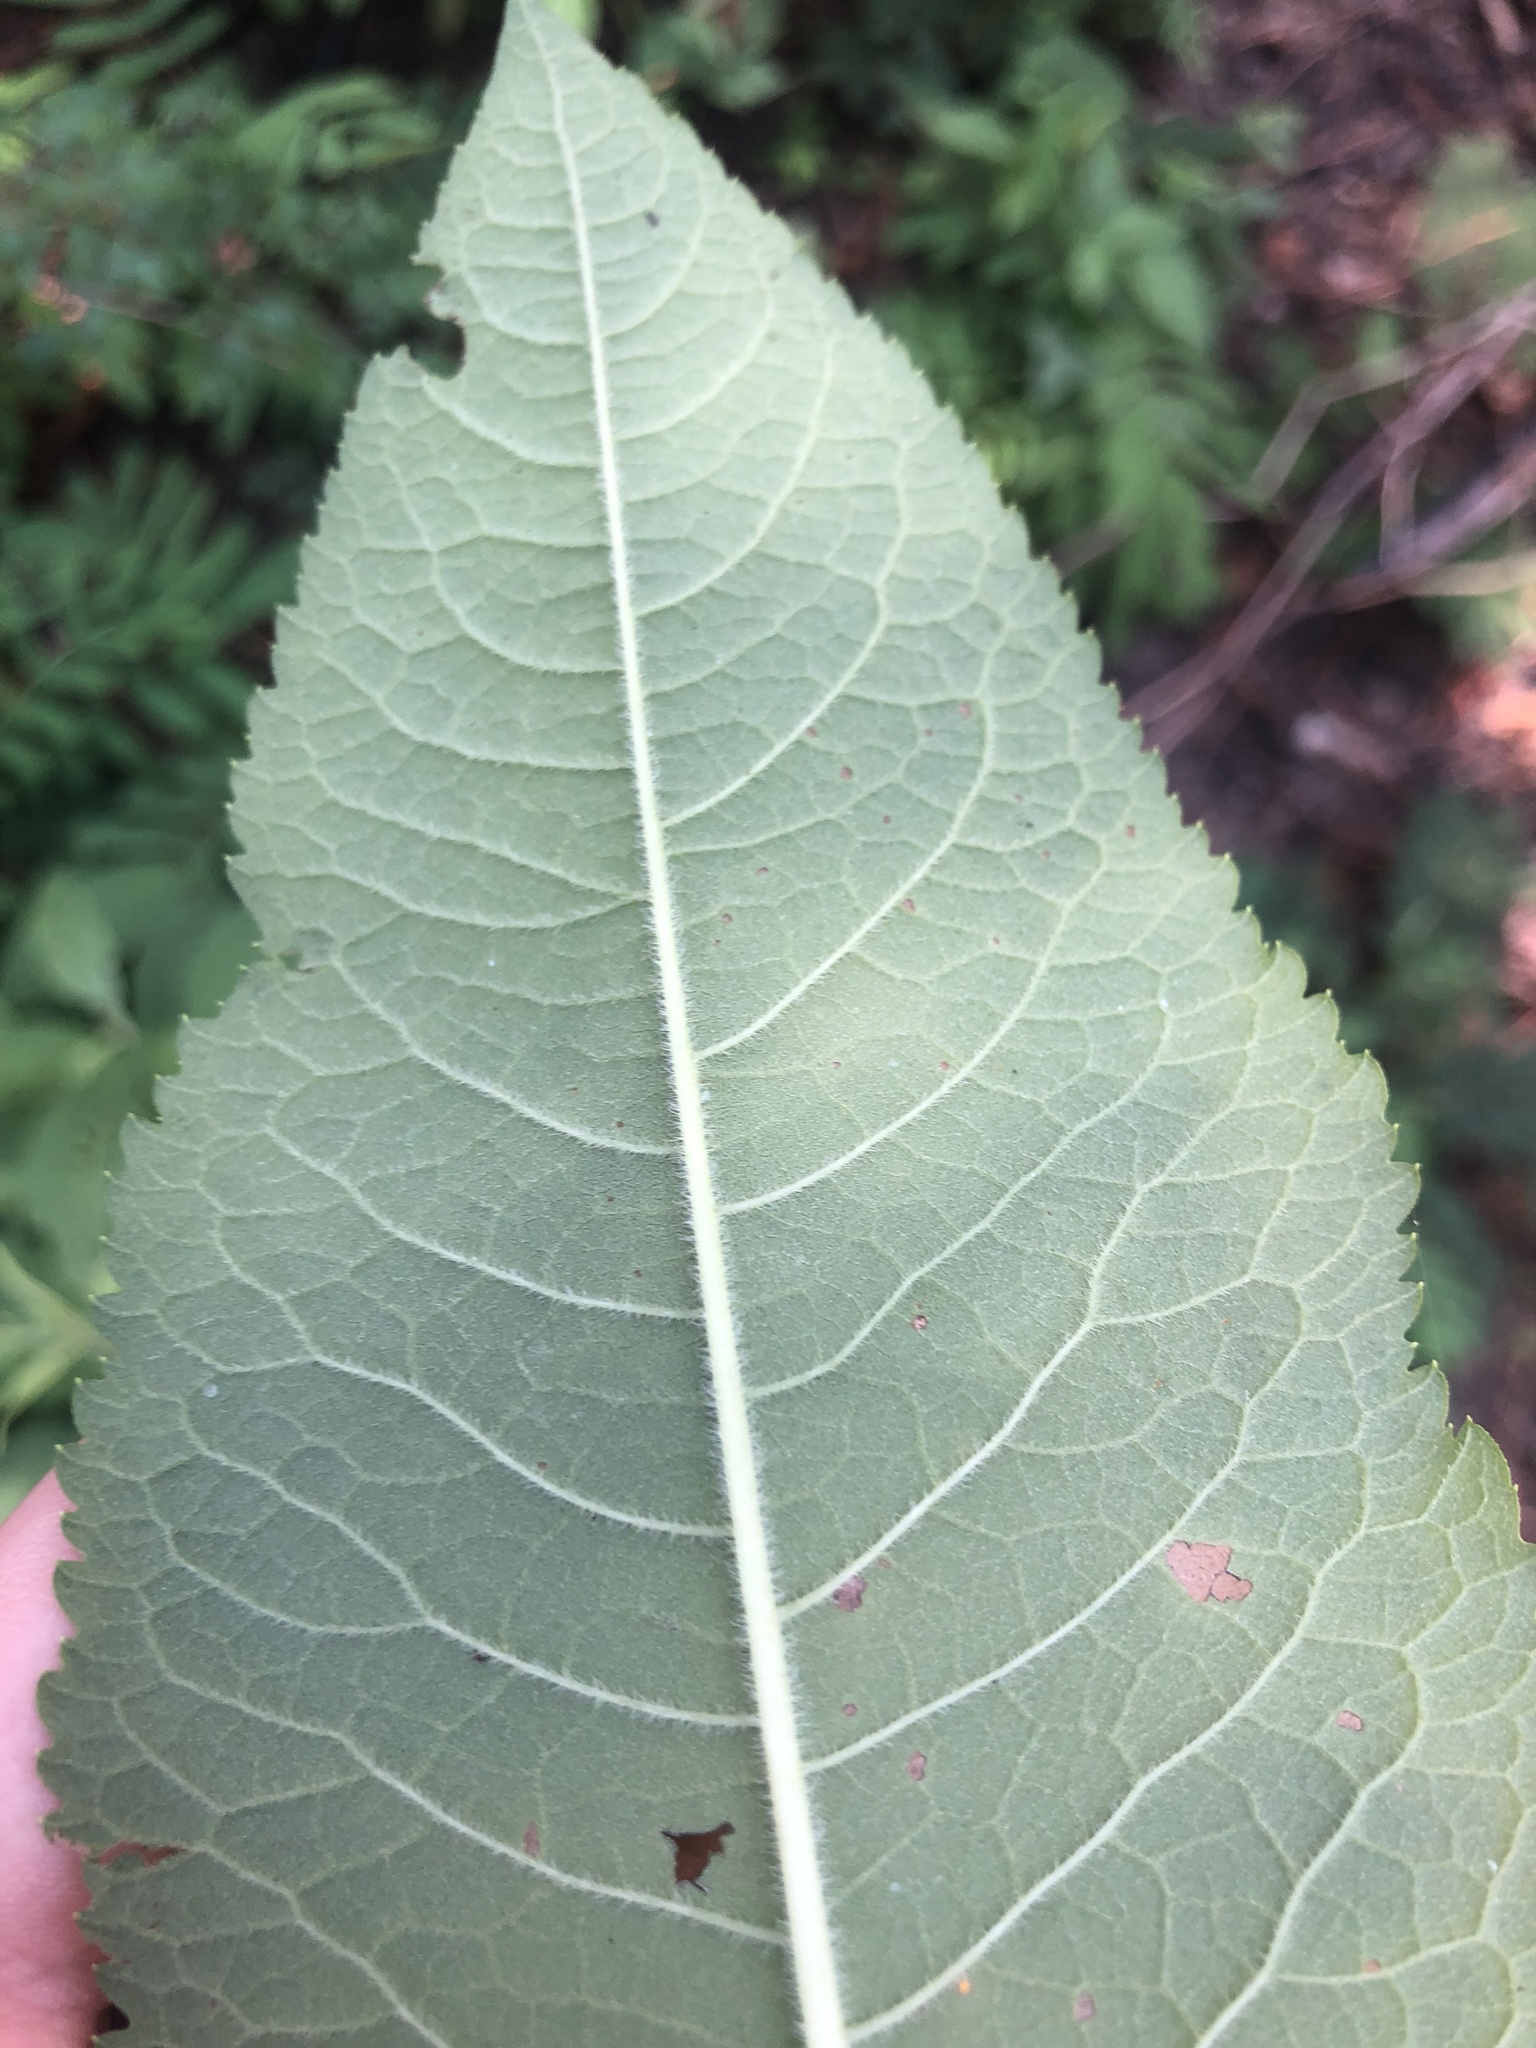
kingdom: Plantae
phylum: Tracheophyta
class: Magnoliopsida
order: Asterales
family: Asteraceae
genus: Vernonia
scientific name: Vernonia missurica
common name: Missouri ironweed
